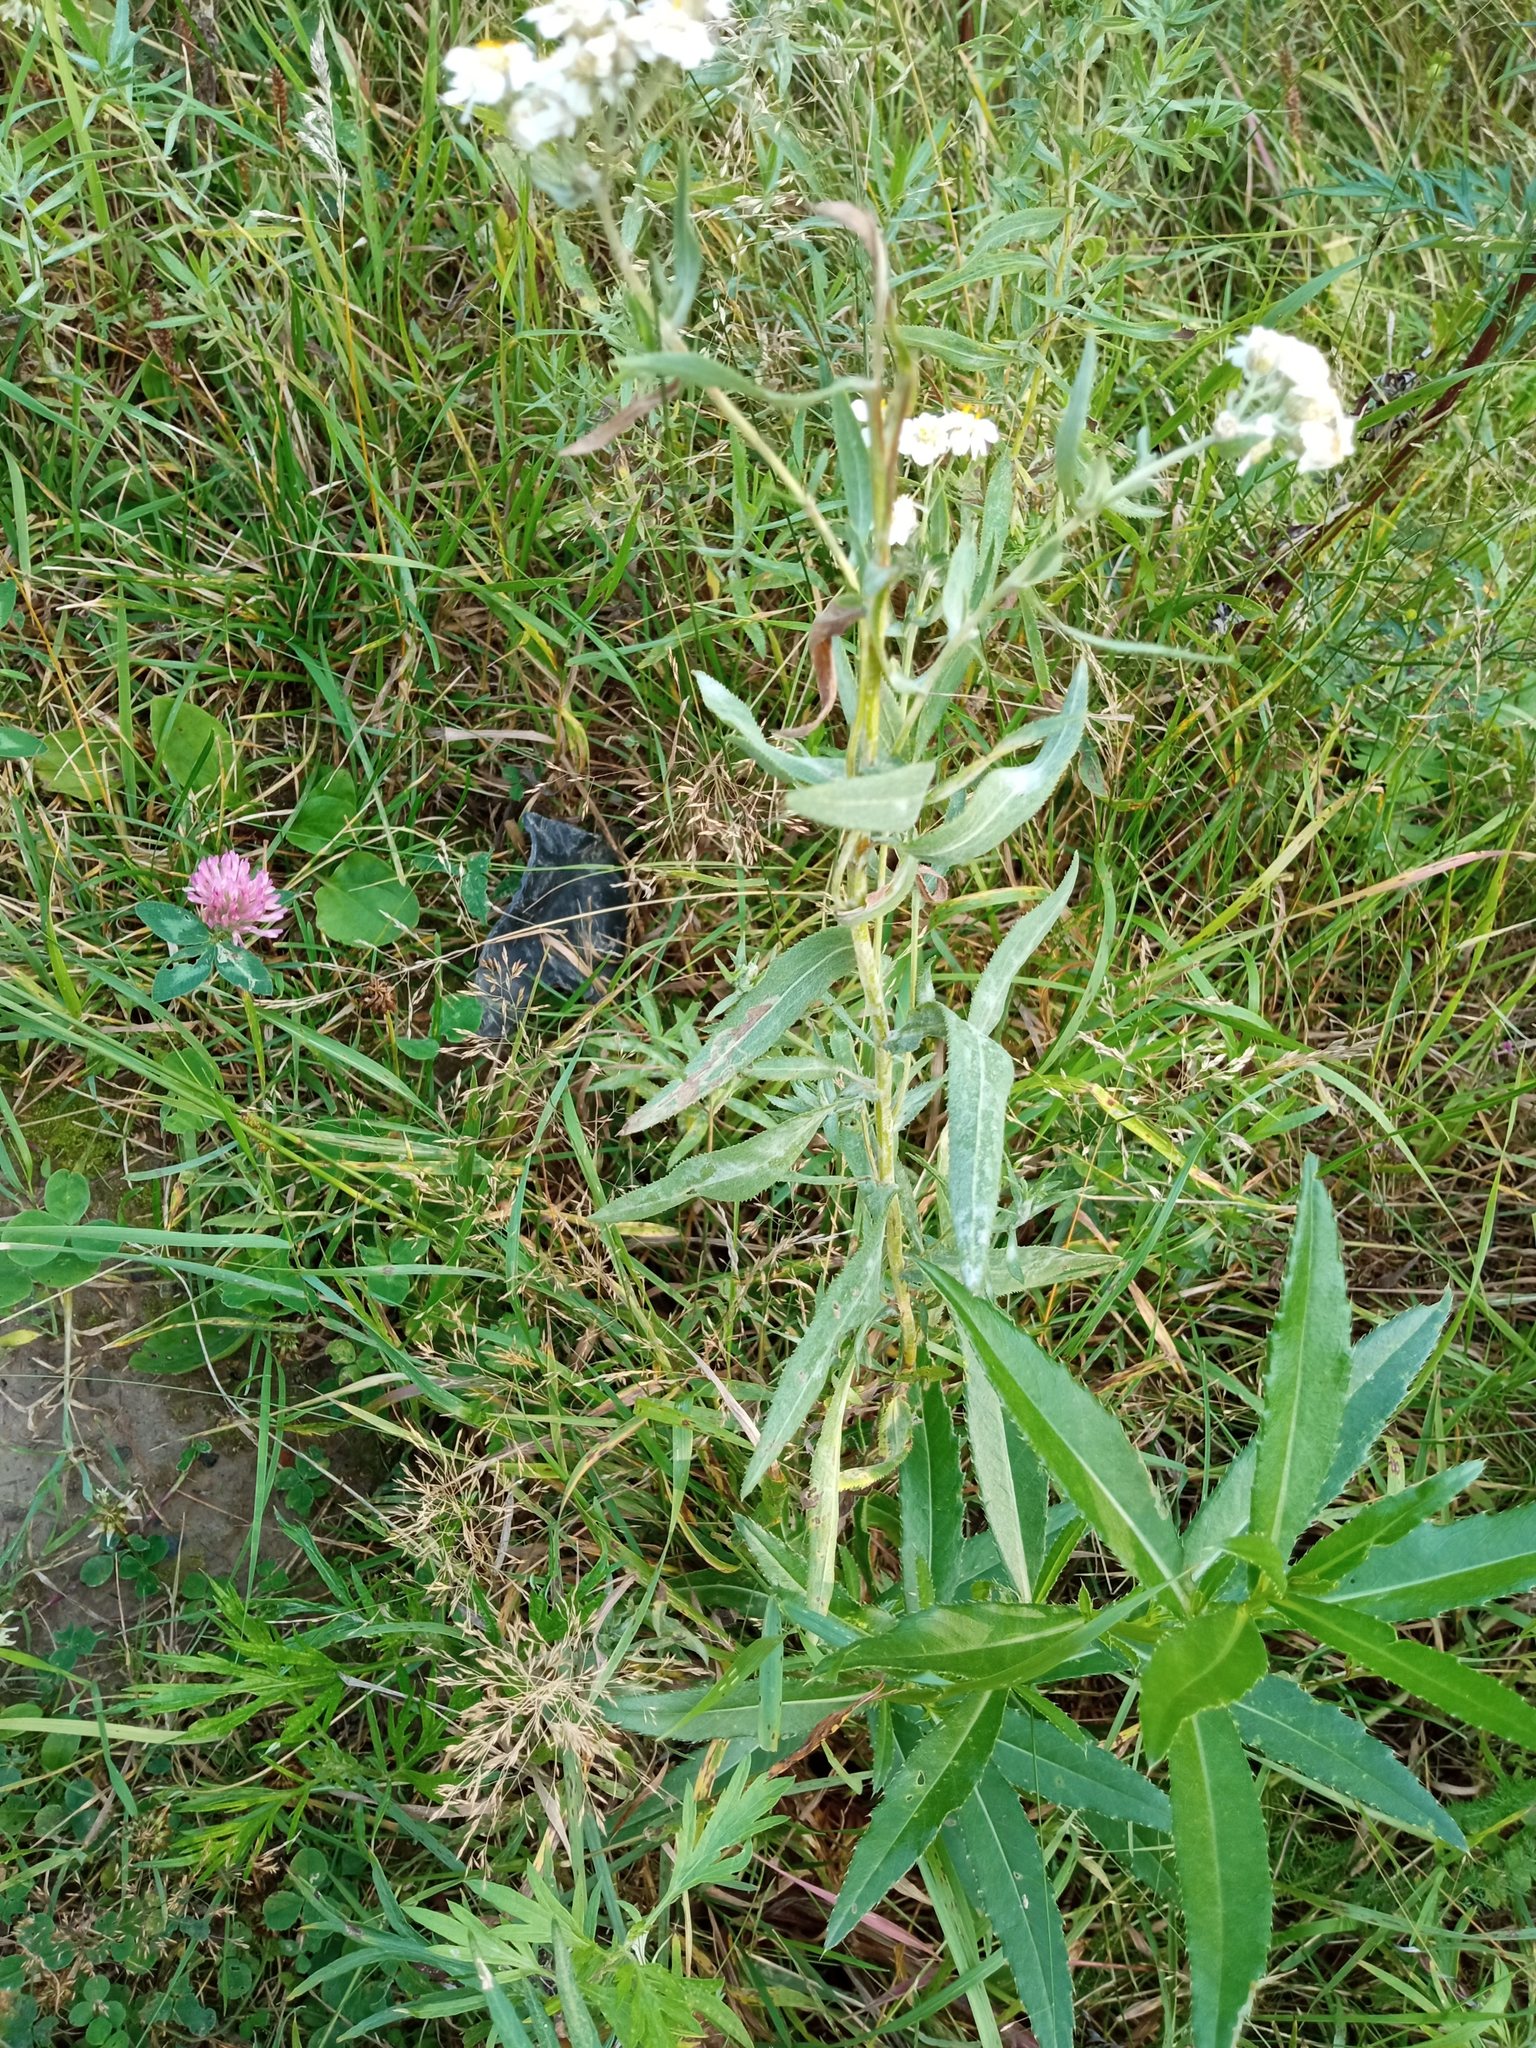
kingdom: Plantae
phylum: Tracheophyta
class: Magnoliopsida
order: Asterales
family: Asteraceae
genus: Achillea
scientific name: Achillea salicifolia
